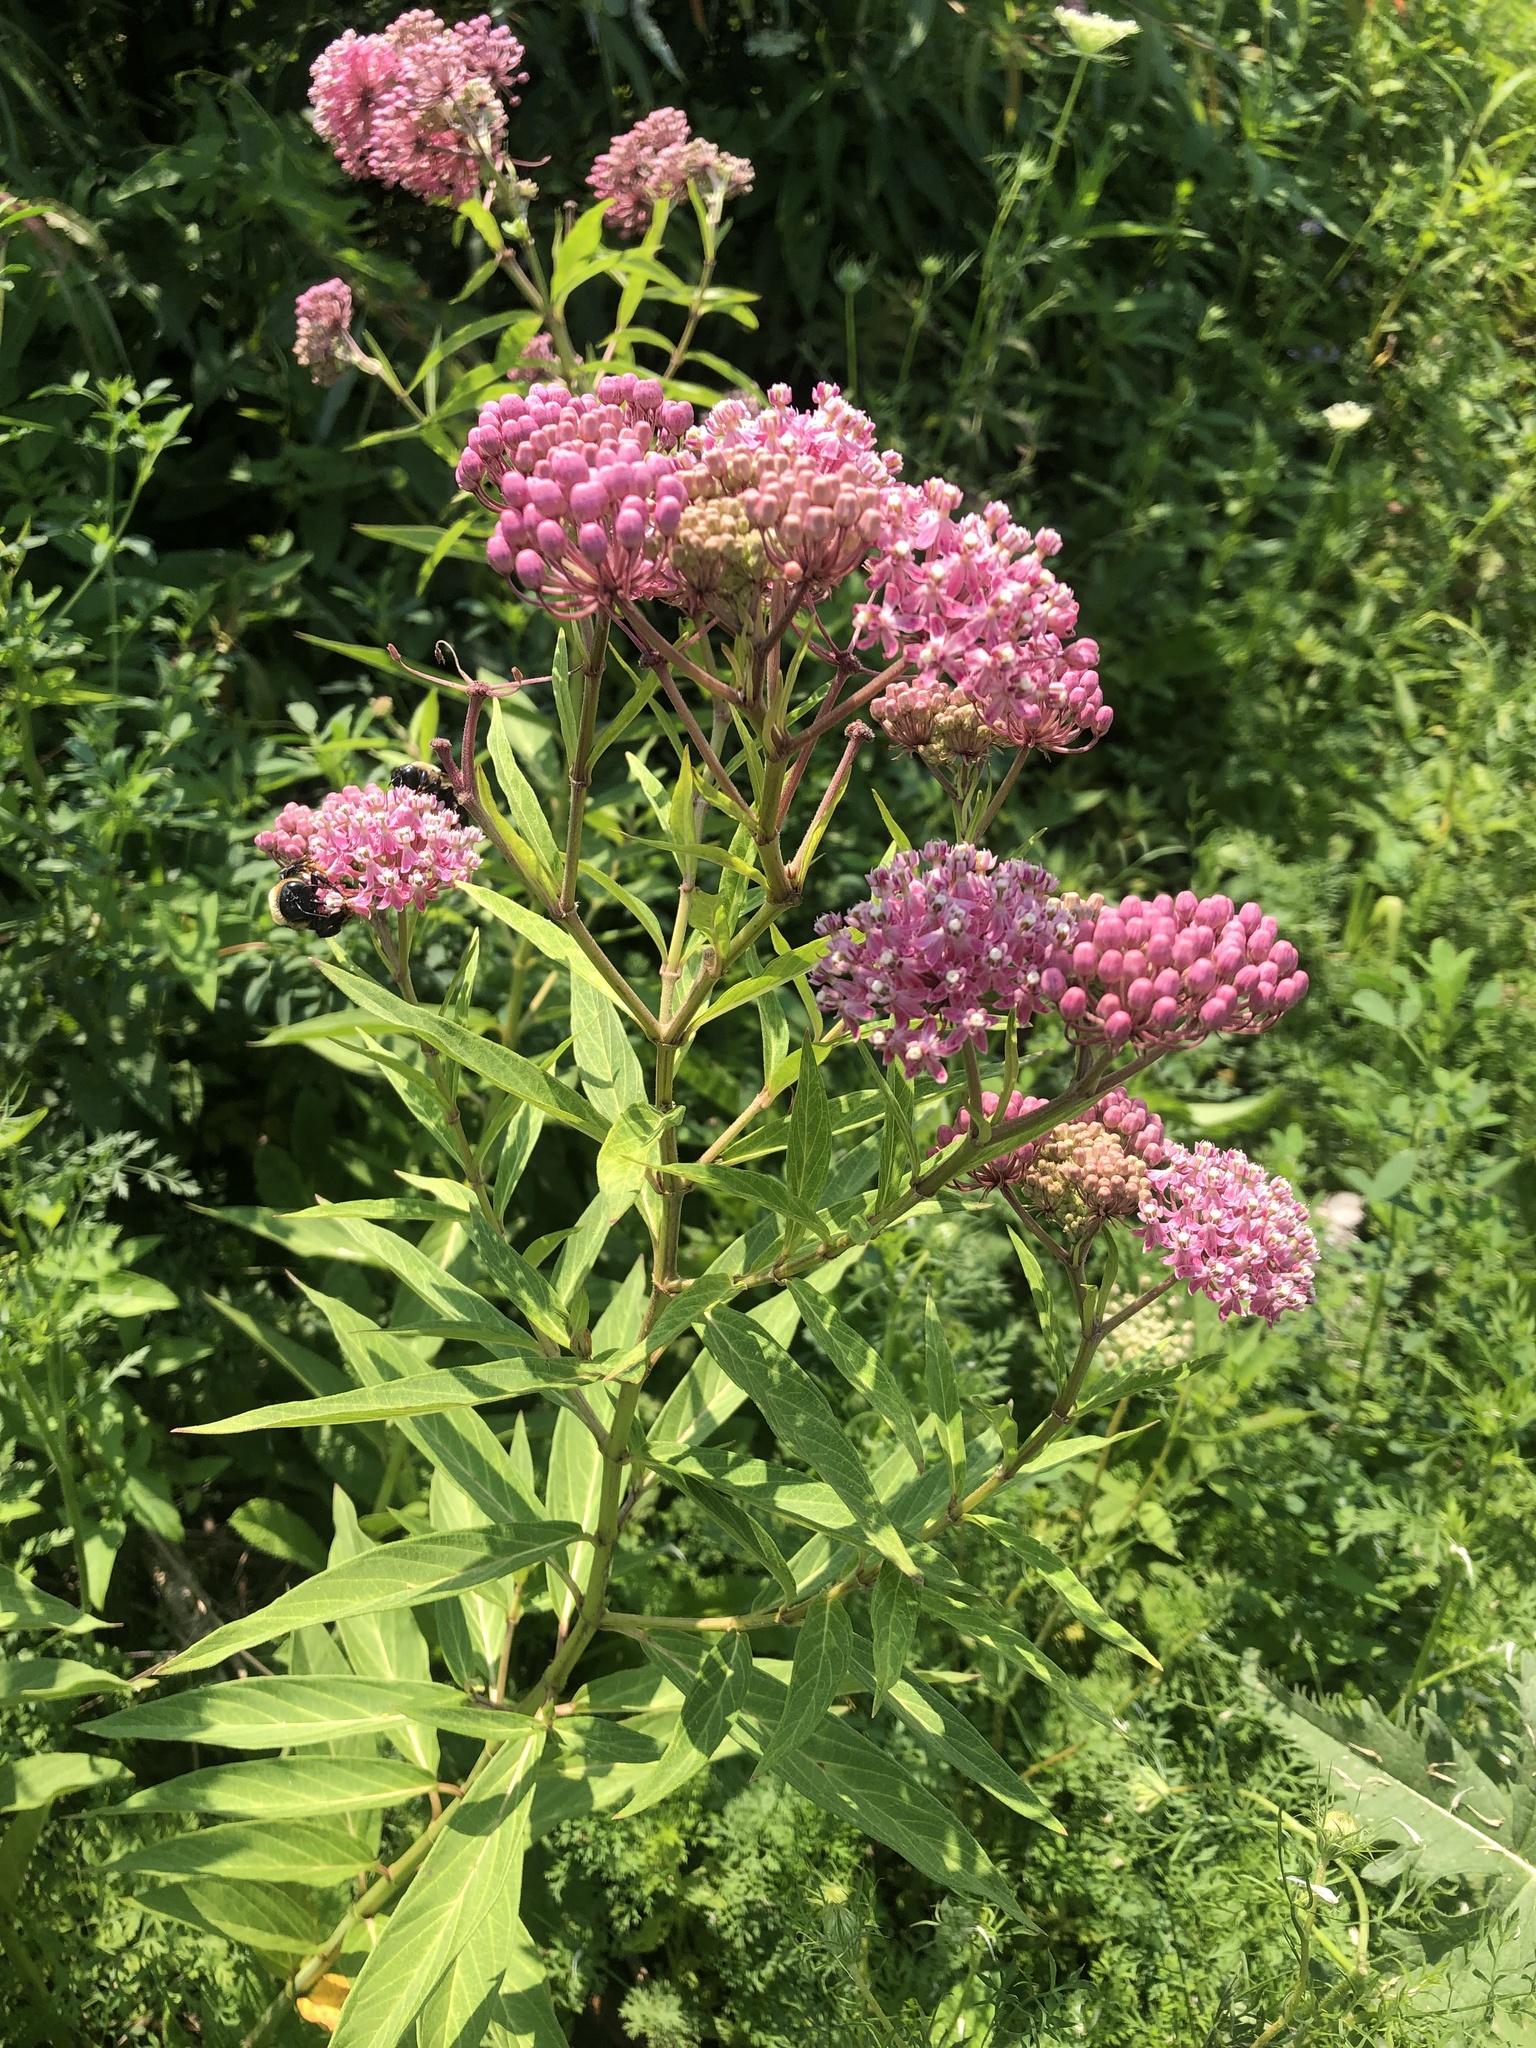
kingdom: Plantae
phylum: Tracheophyta
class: Magnoliopsida
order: Gentianales
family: Apocynaceae
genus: Asclepias
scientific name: Asclepias incarnata
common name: Swamp milkweed
